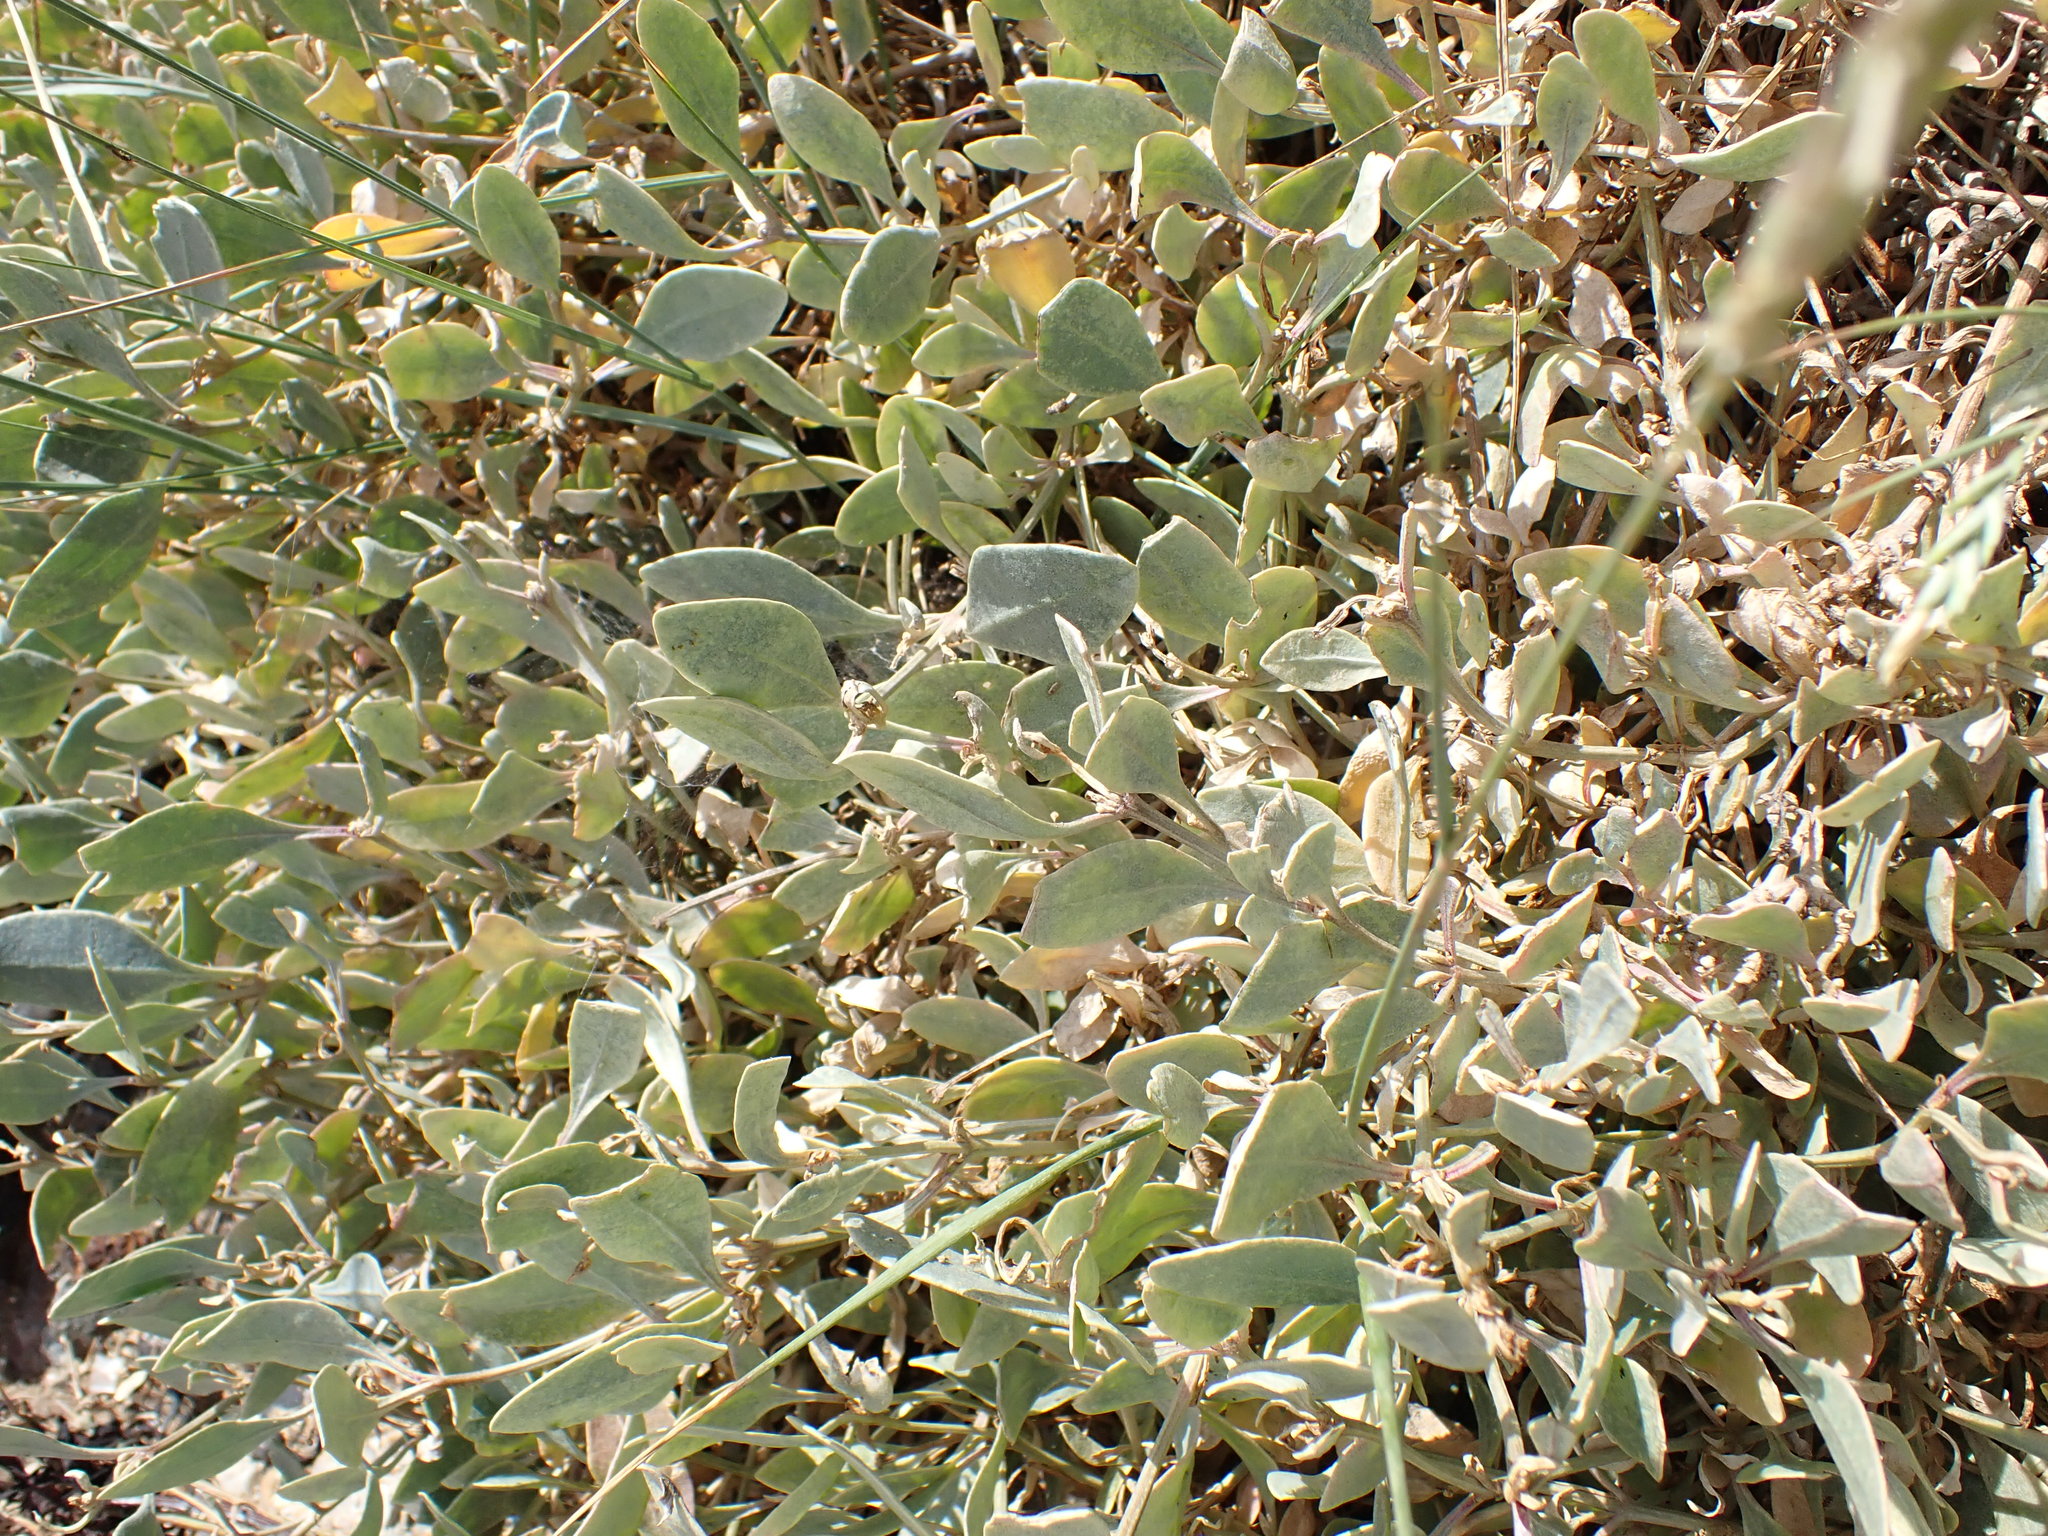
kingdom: Plantae
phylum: Tracheophyta
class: Magnoliopsida
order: Caryophyllales
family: Amaranthaceae
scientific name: Amaranthaceae
